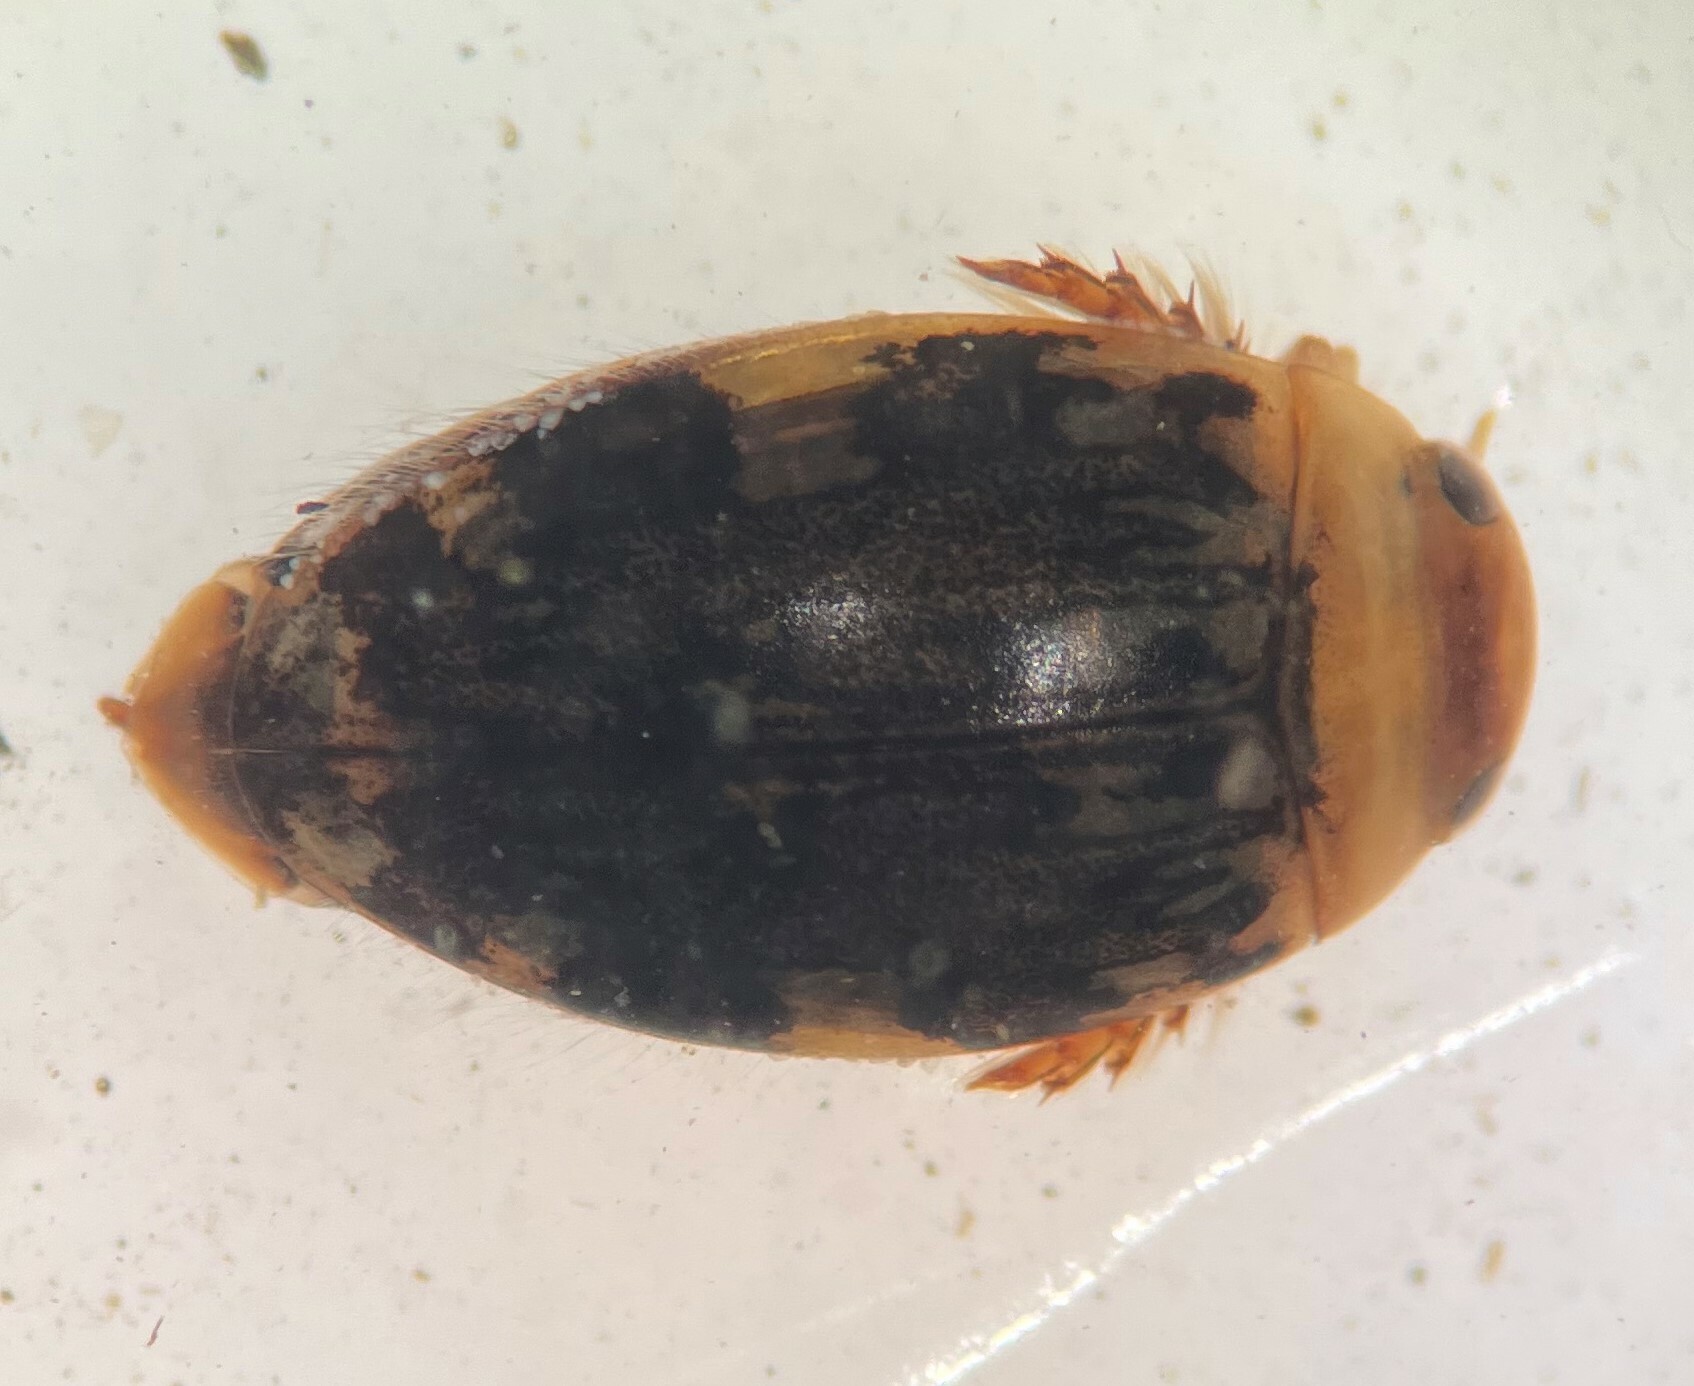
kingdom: Animalia
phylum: Arthropoda
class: Insecta
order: Coleoptera
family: Dytiscidae
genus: Laccophilus
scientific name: Laccophilus maculosus
